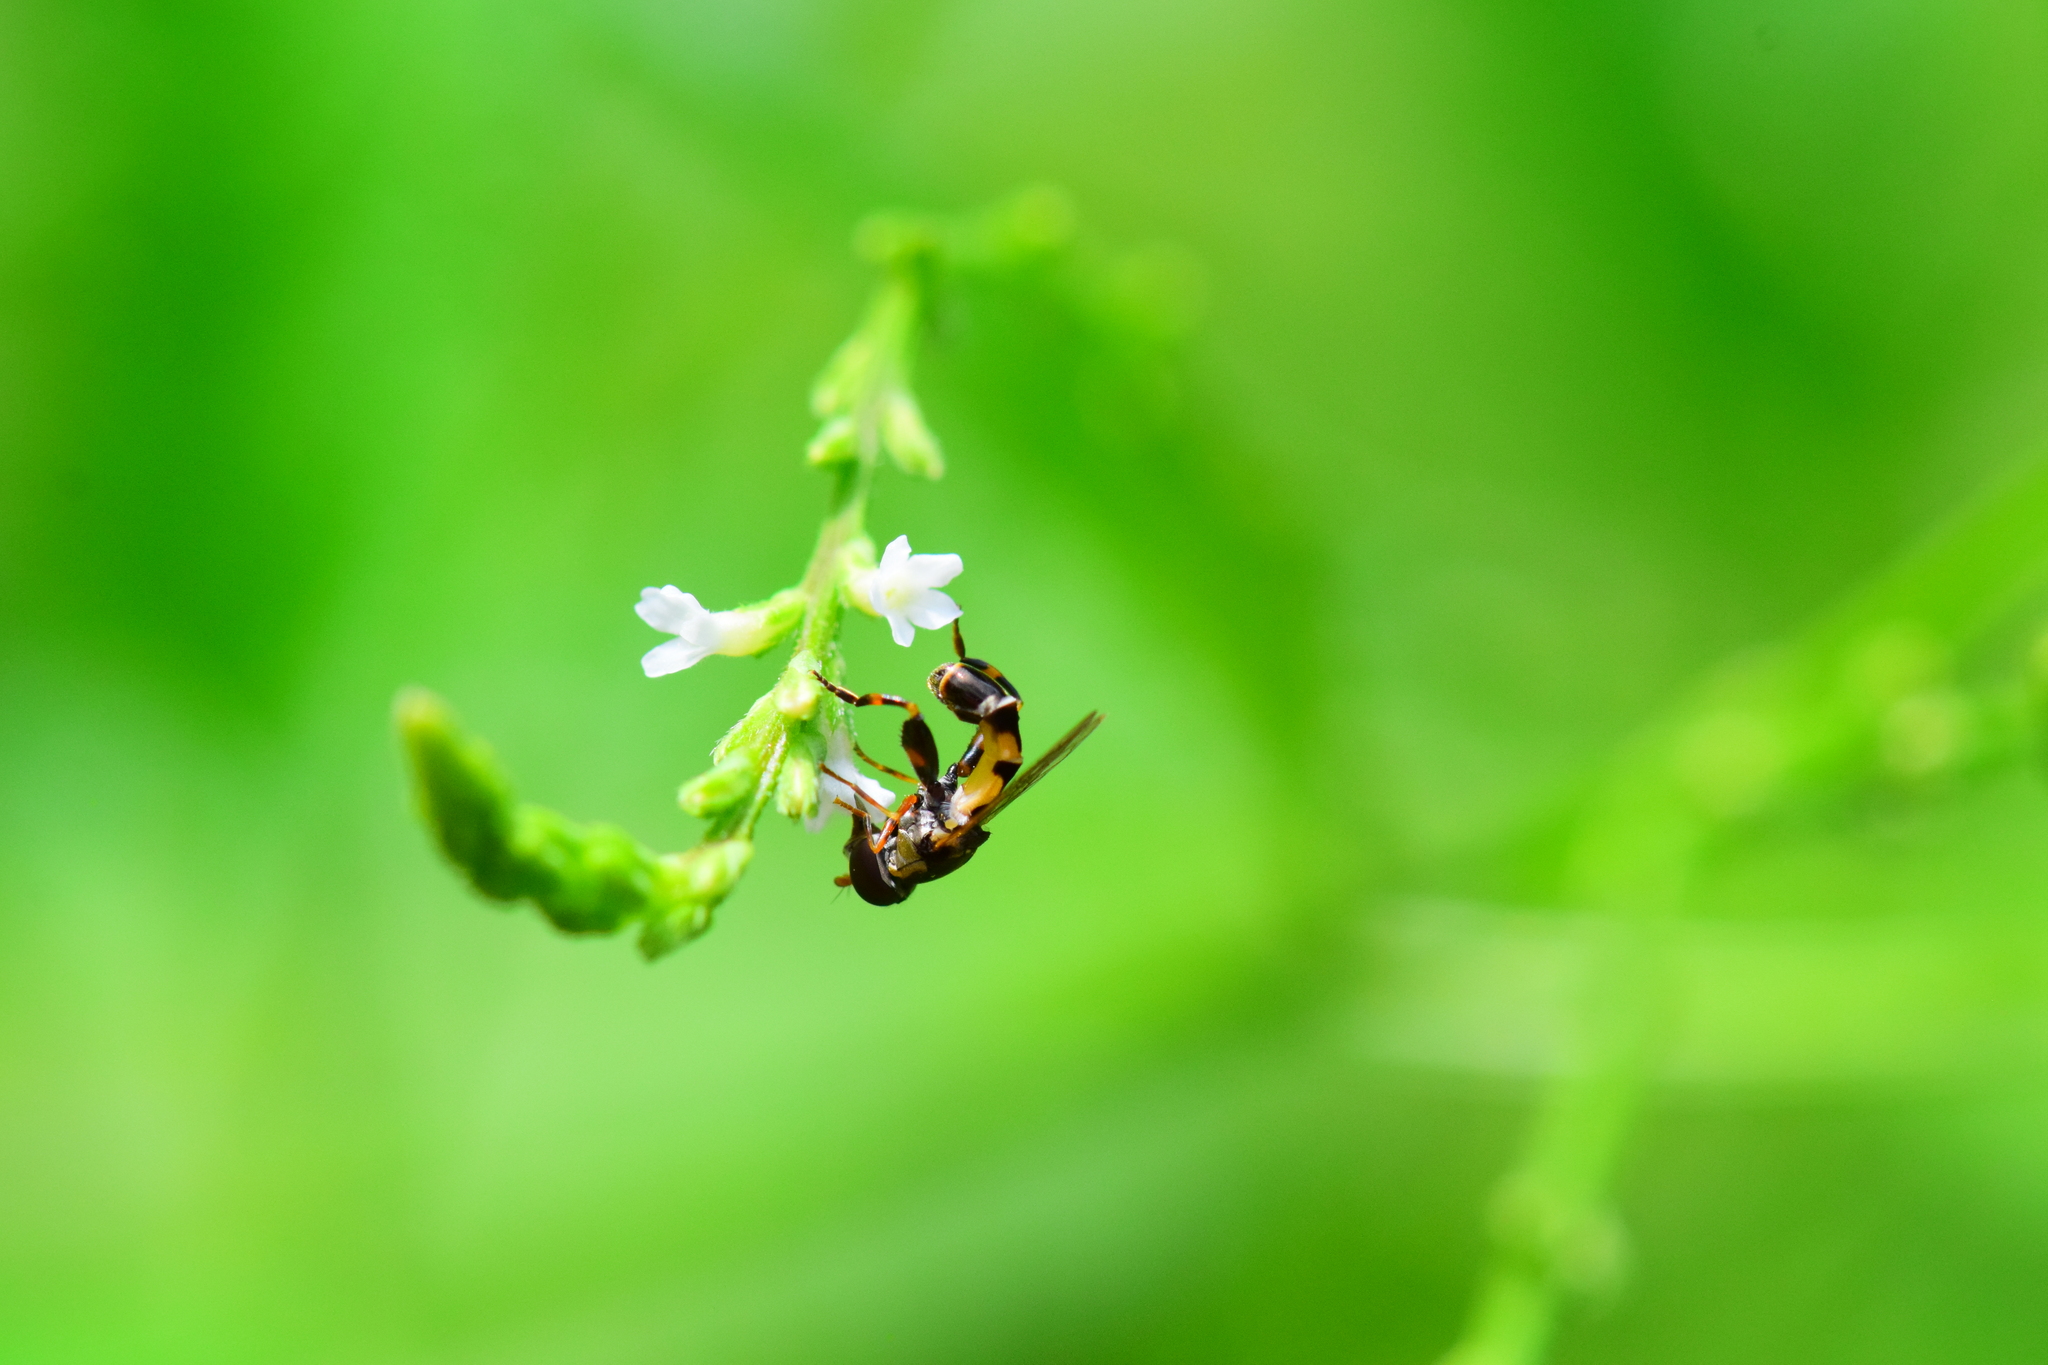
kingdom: Animalia
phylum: Arthropoda
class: Insecta
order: Diptera
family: Syrphidae
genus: Syritta
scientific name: Syritta pipiens
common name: Hover fly
